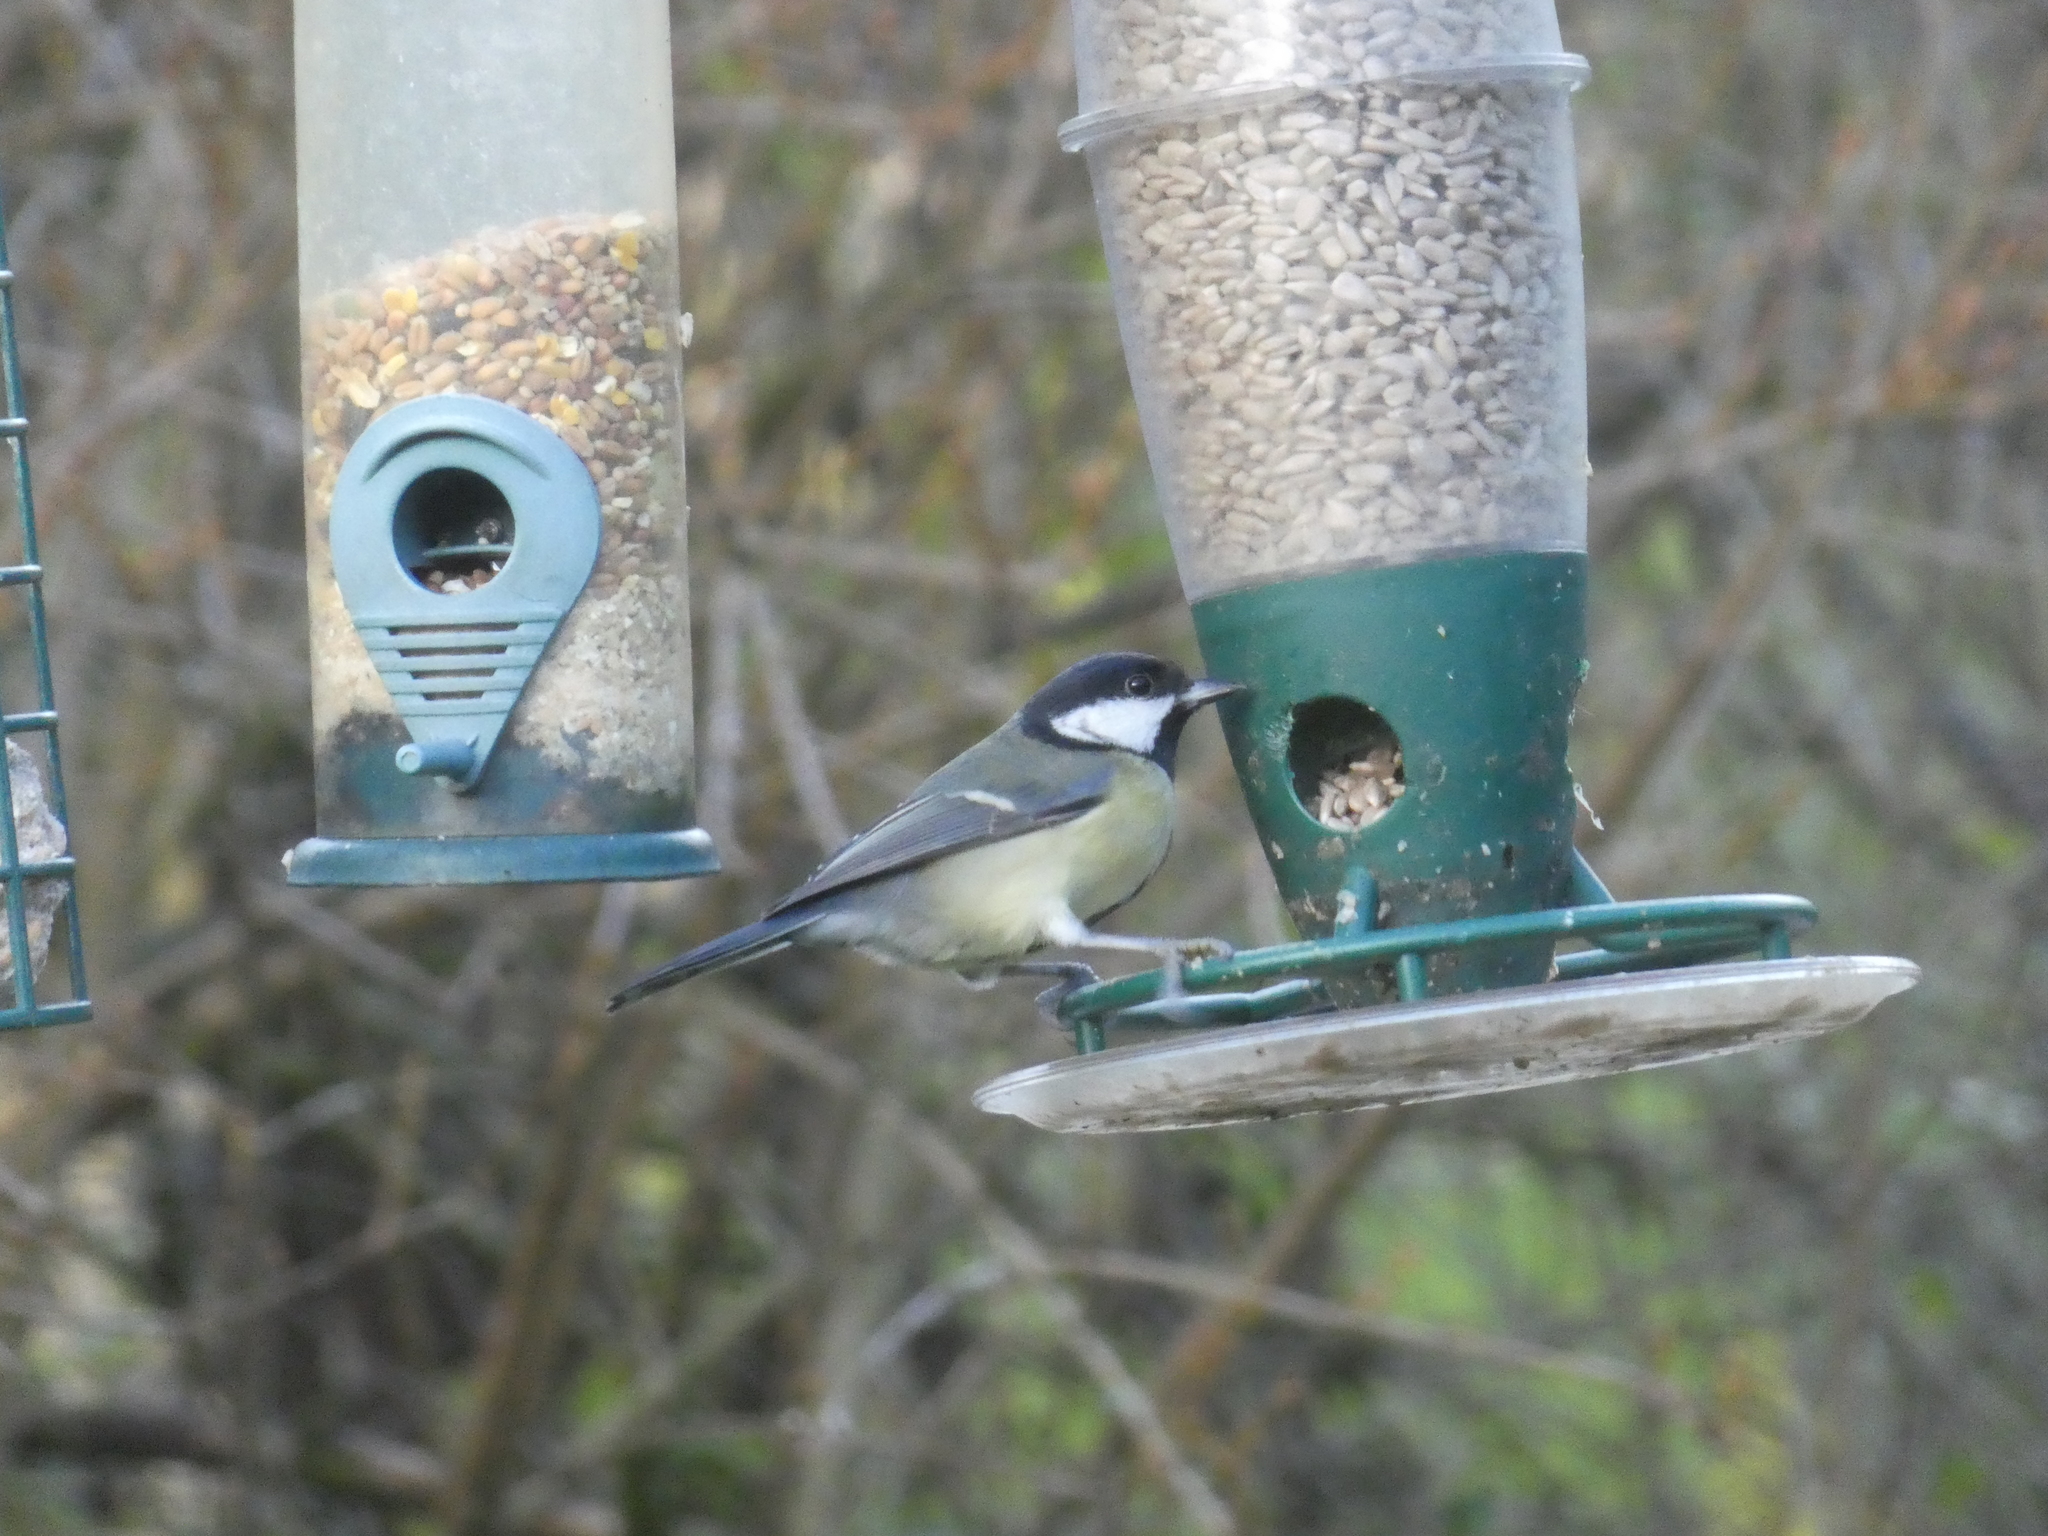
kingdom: Animalia
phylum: Chordata
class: Aves
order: Passeriformes
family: Paridae
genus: Parus
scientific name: Parus major
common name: Great tit
